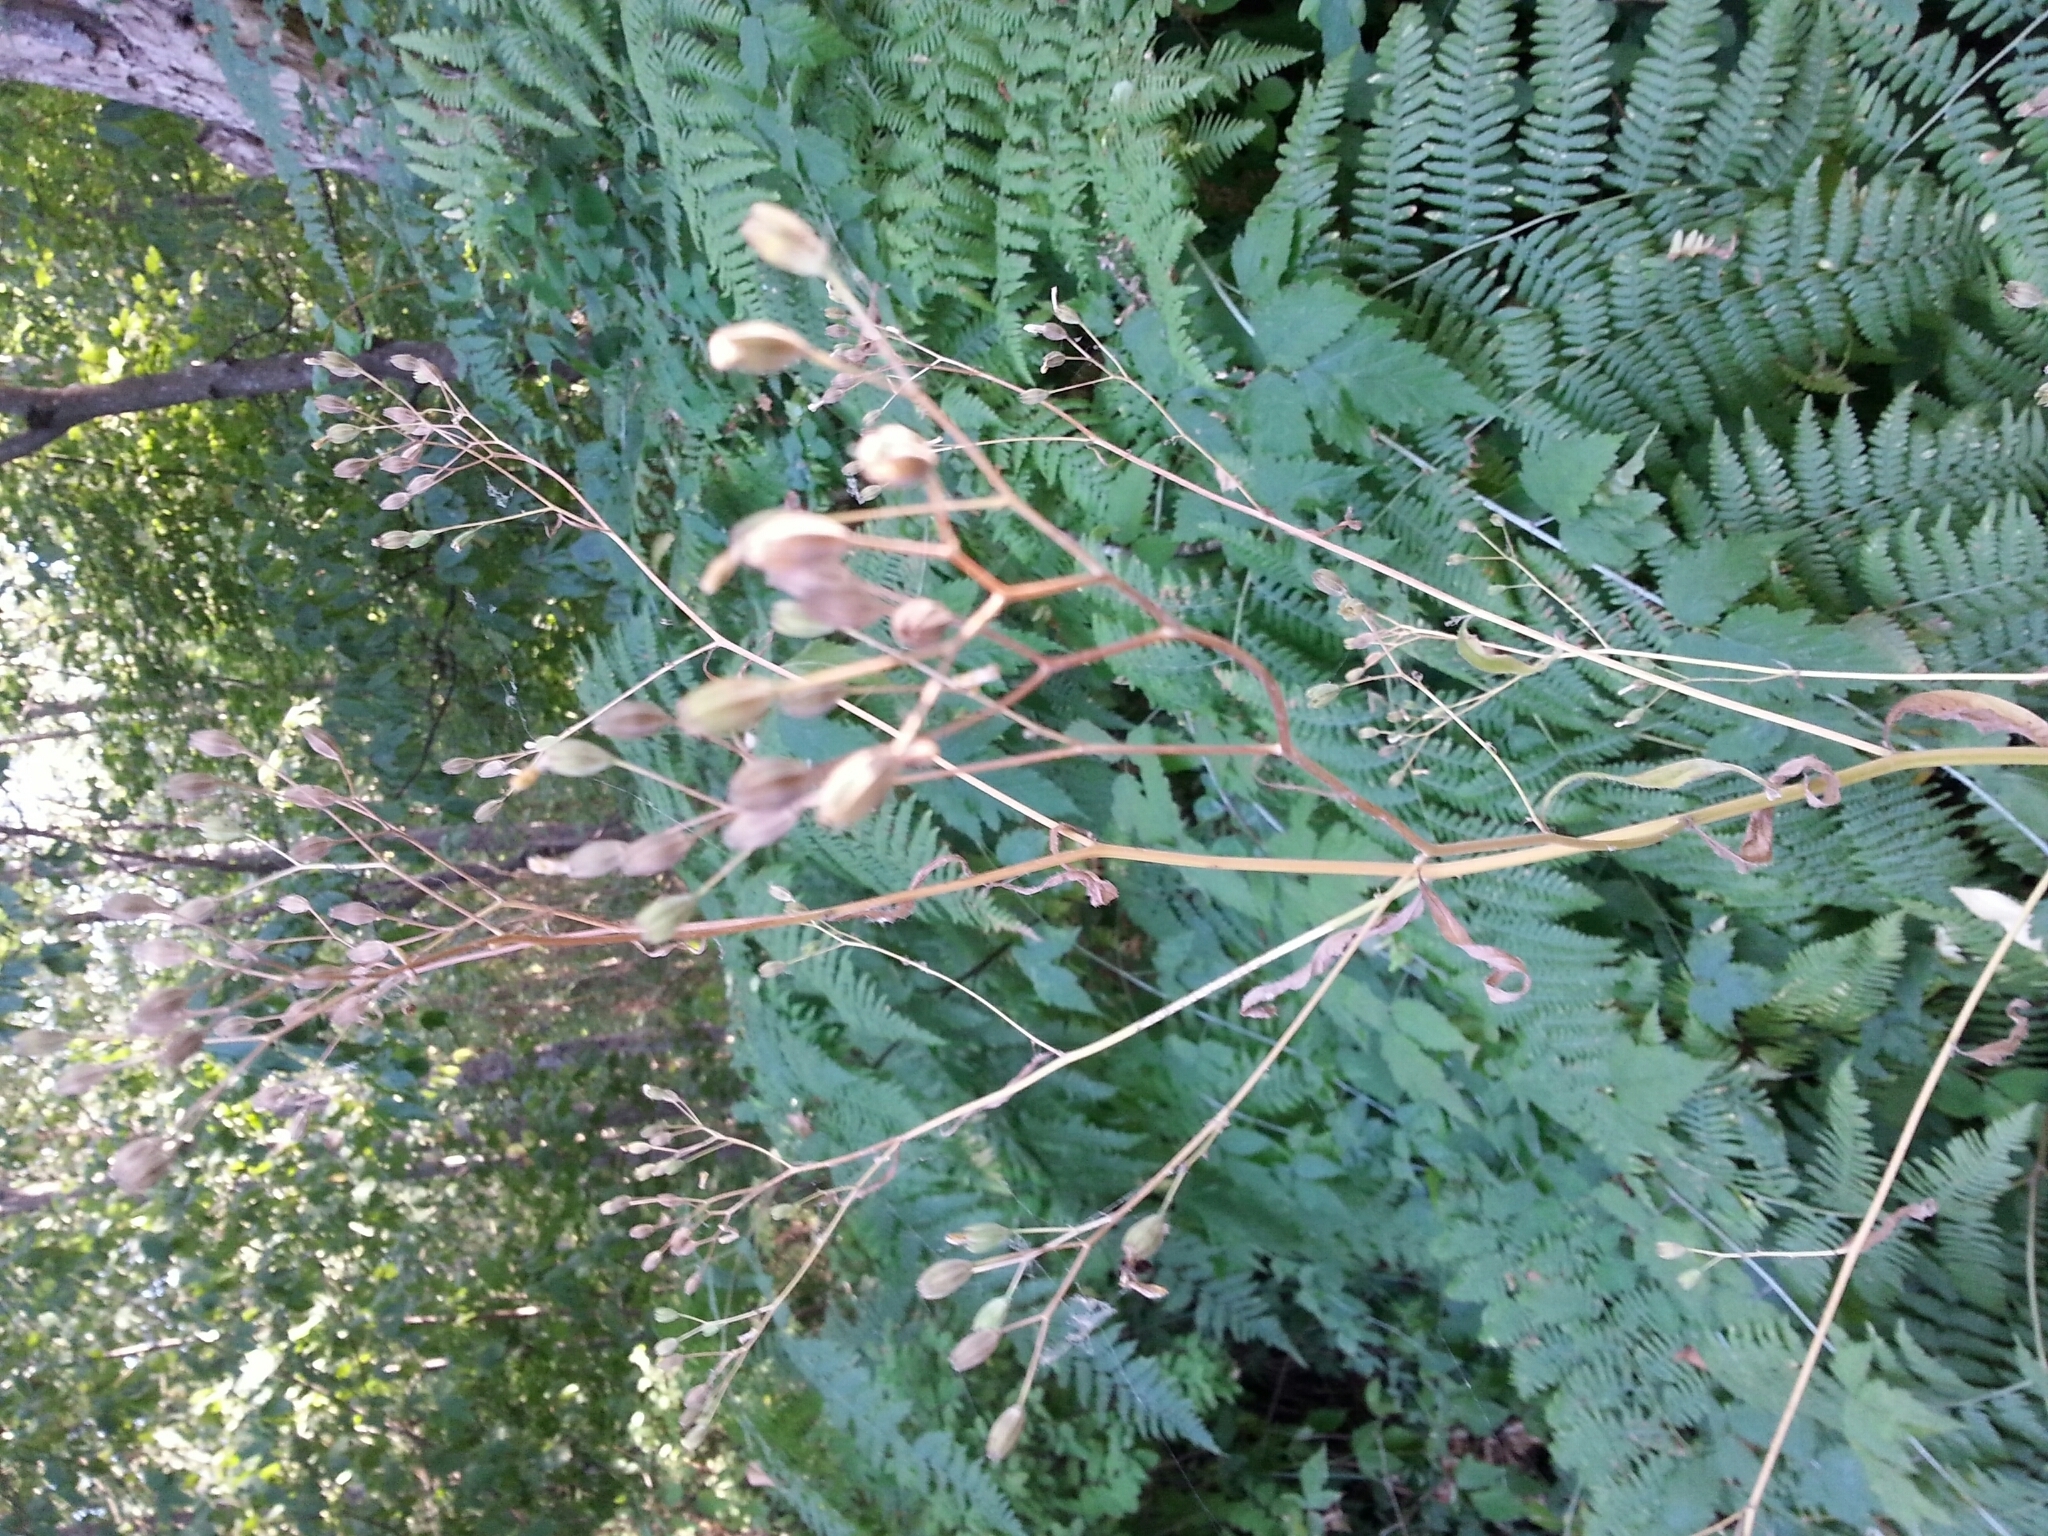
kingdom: Plantae
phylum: Tracheophyta
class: Magnoliopsida
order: Asterales
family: Asteraceae
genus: Lapsana
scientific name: Lapsana communis
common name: Nipplewort
